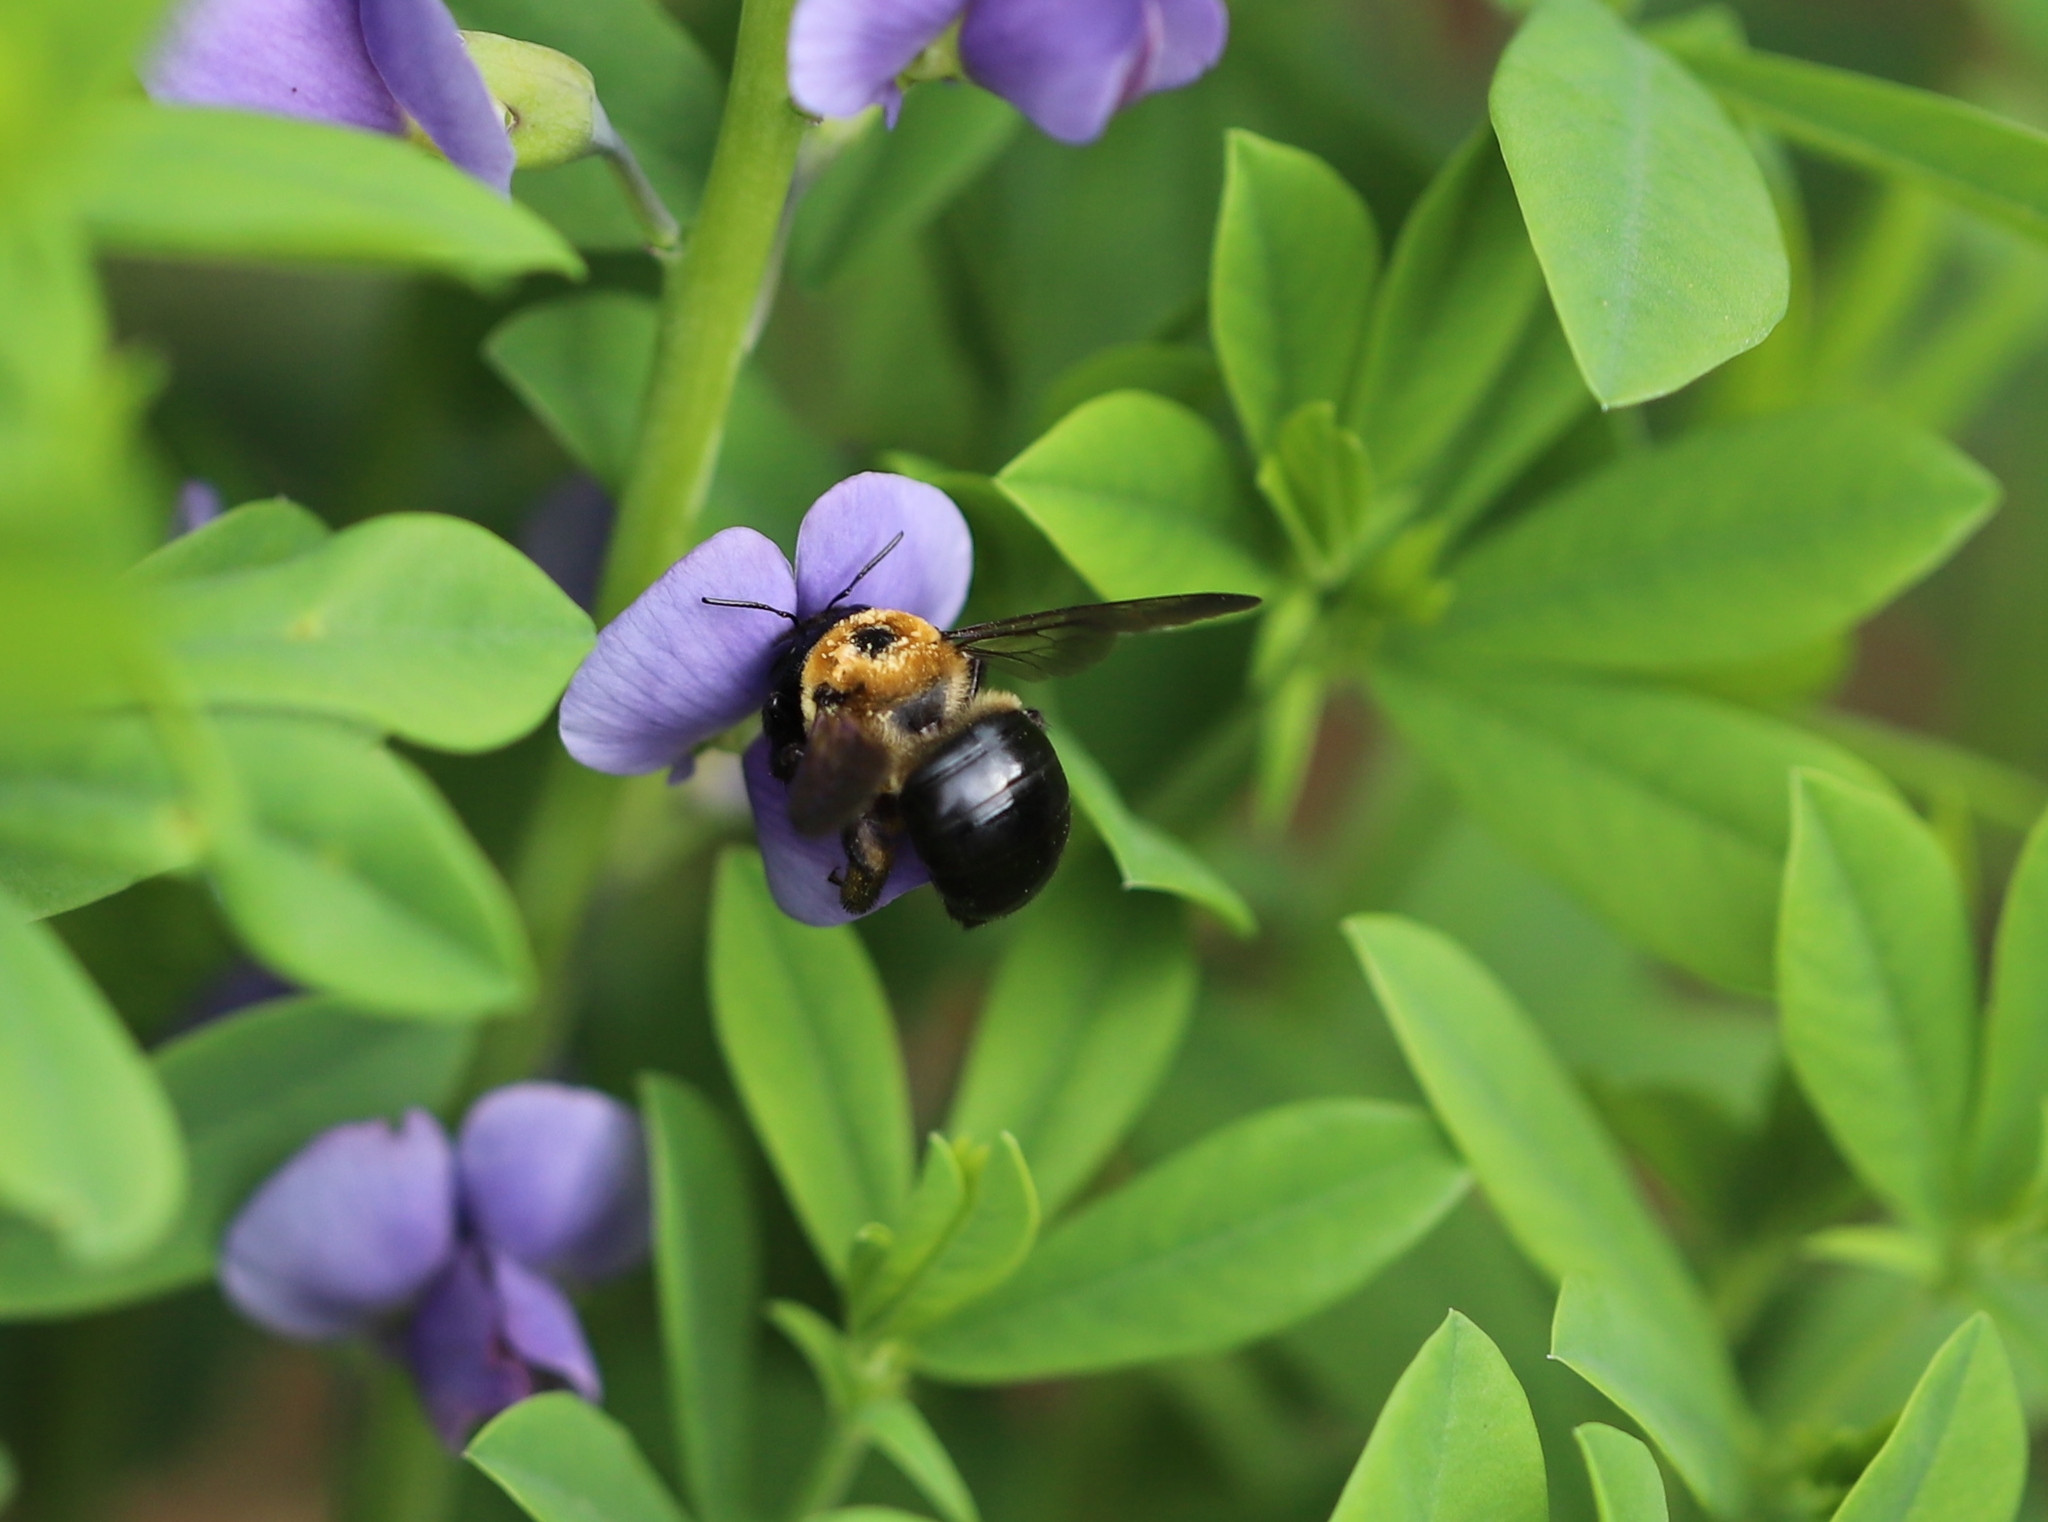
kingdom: Animalia
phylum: Arthropoda
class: Insecta
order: Hymenoptera
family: Apidae
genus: Xylocopa
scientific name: Xylocopa virginica
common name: Carpenter bee
